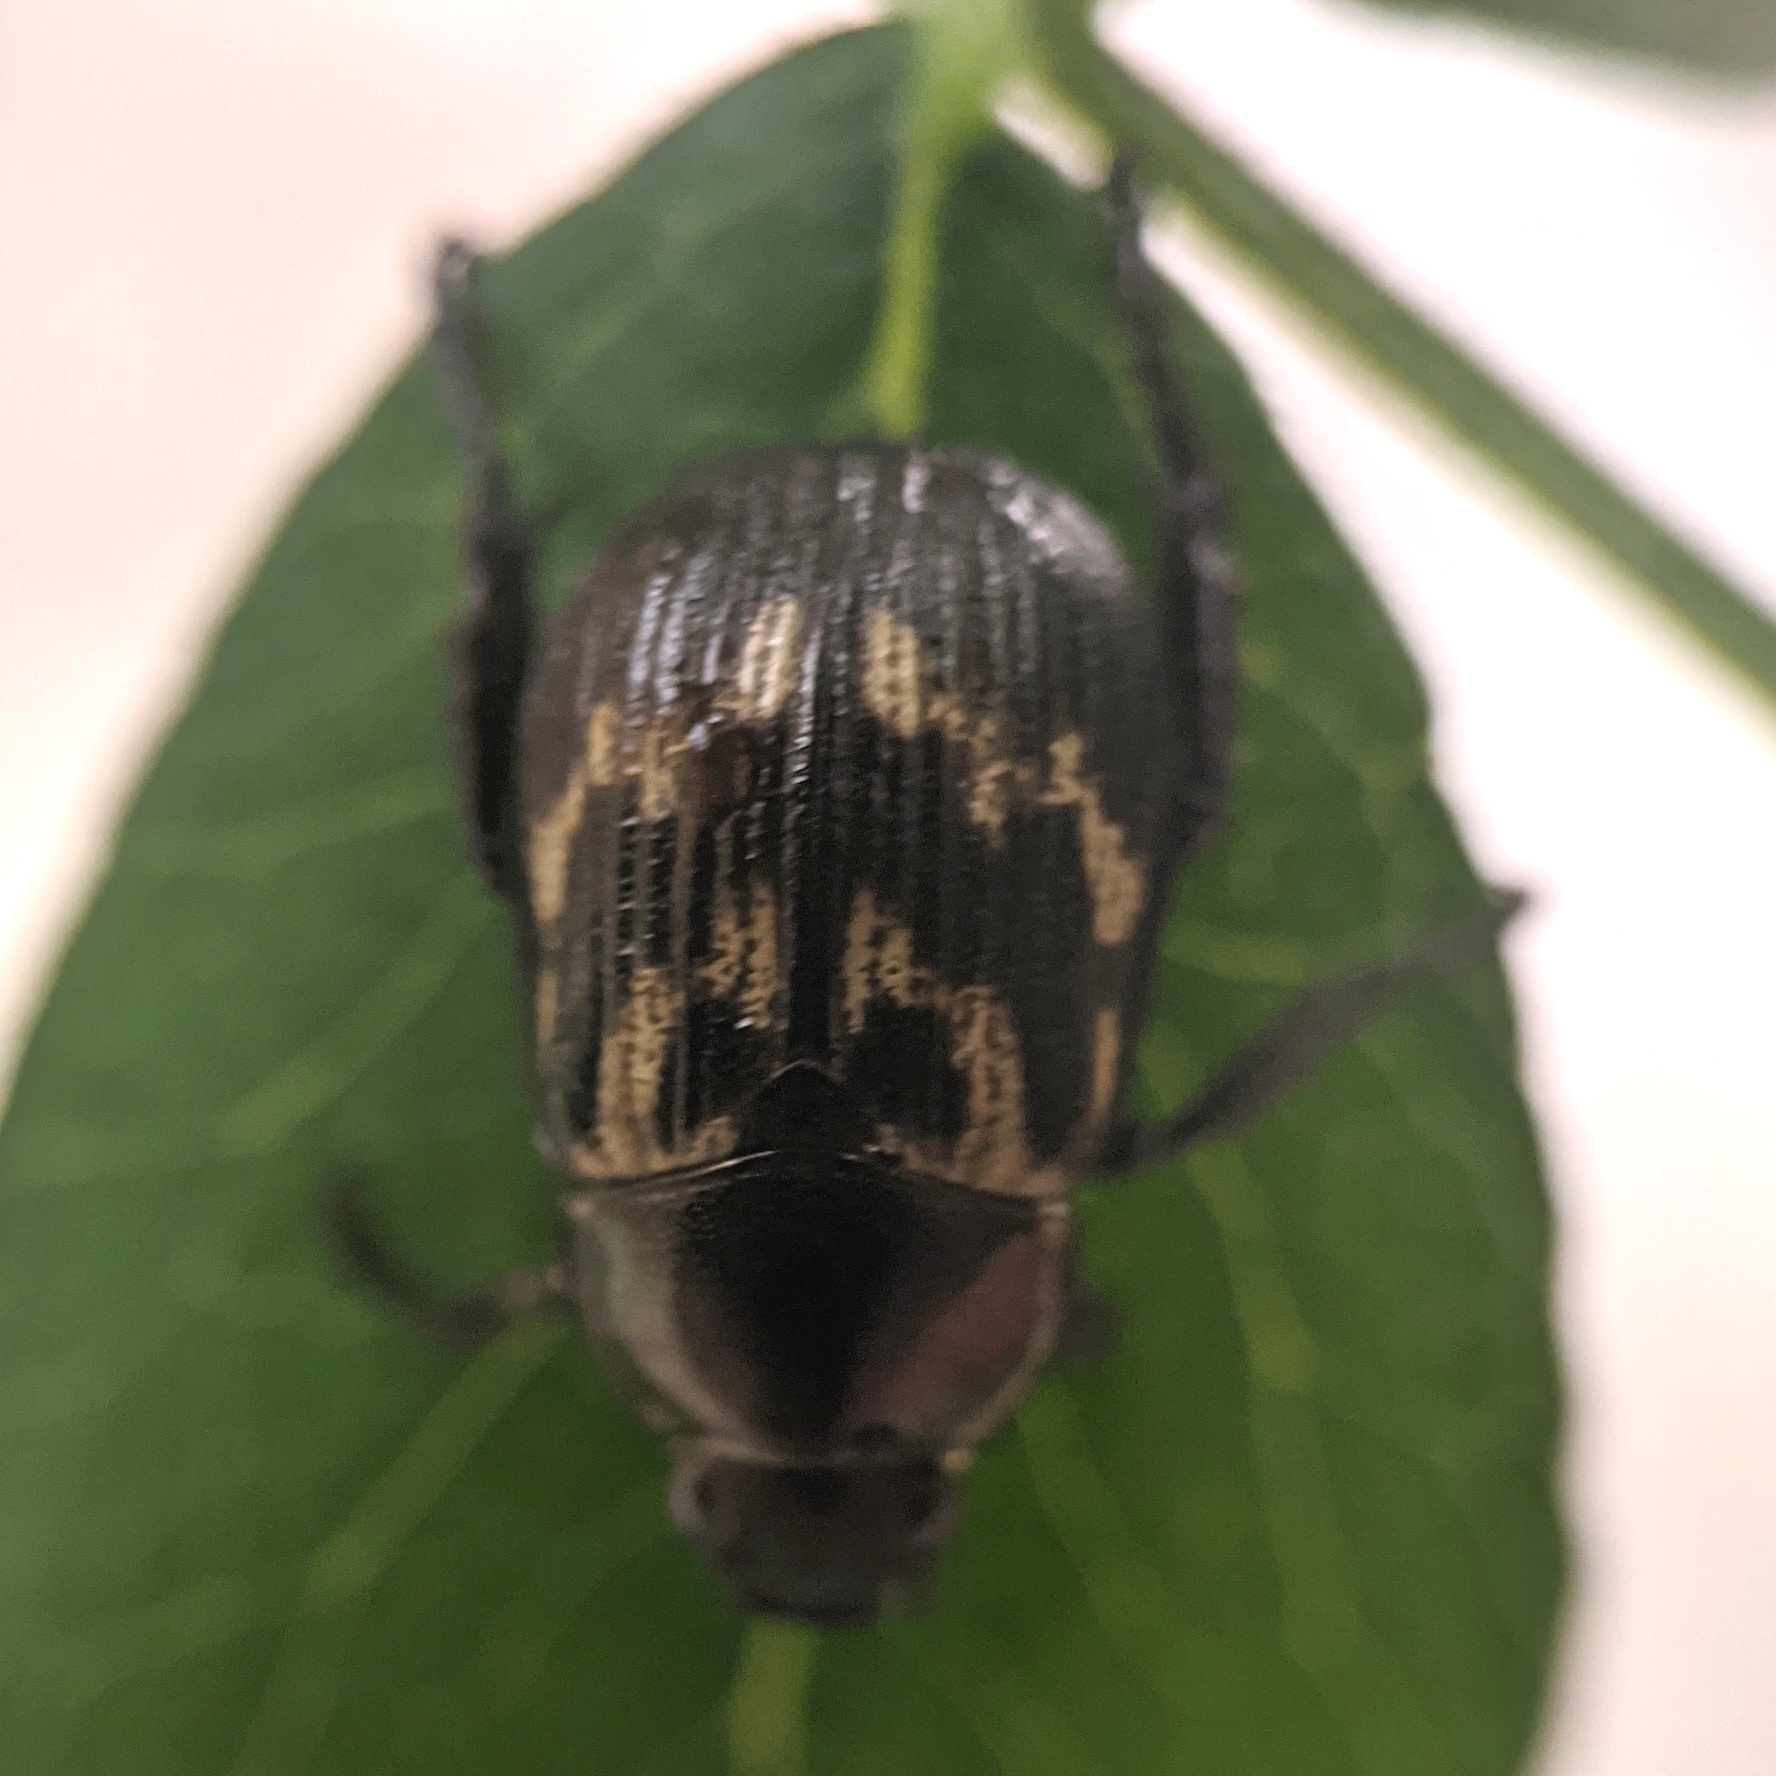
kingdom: Animalia
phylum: Arthropoda
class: Insecta
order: Coleoptera
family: Scarabaeidae
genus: Exomala
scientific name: Exomala orientalis
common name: Oriental beetle
